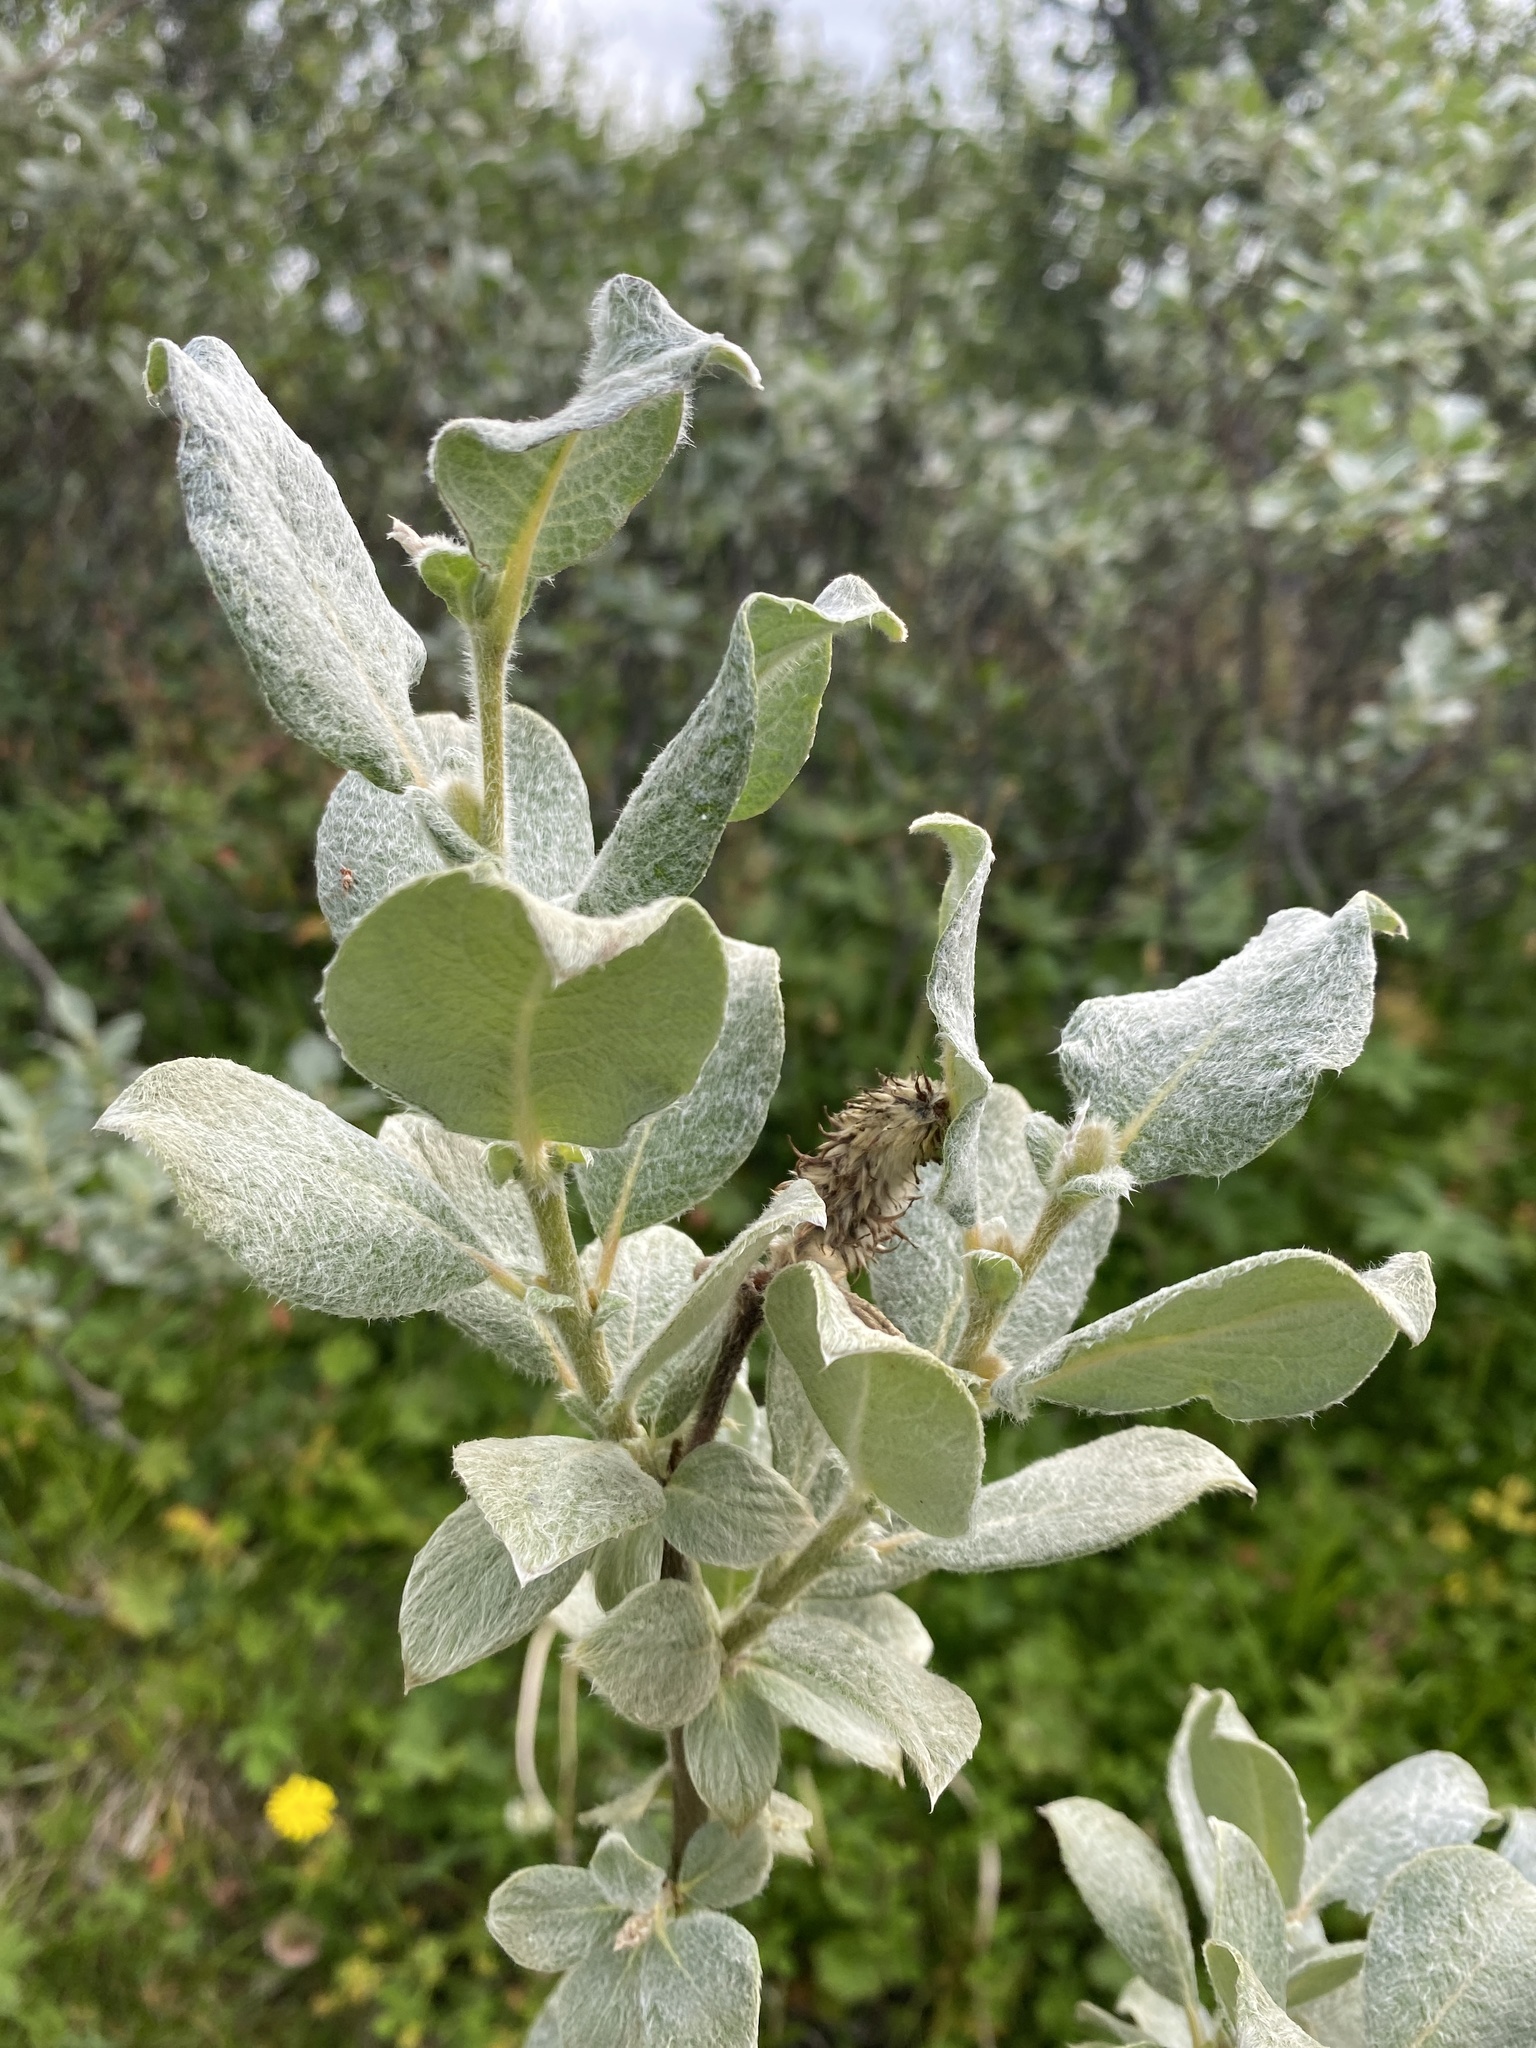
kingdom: Plantae
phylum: Tracheophyta
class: Magnoliopsida
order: Malpighiales
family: Salicaceae
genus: Salix
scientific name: Salix lanata
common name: Woolly willow
